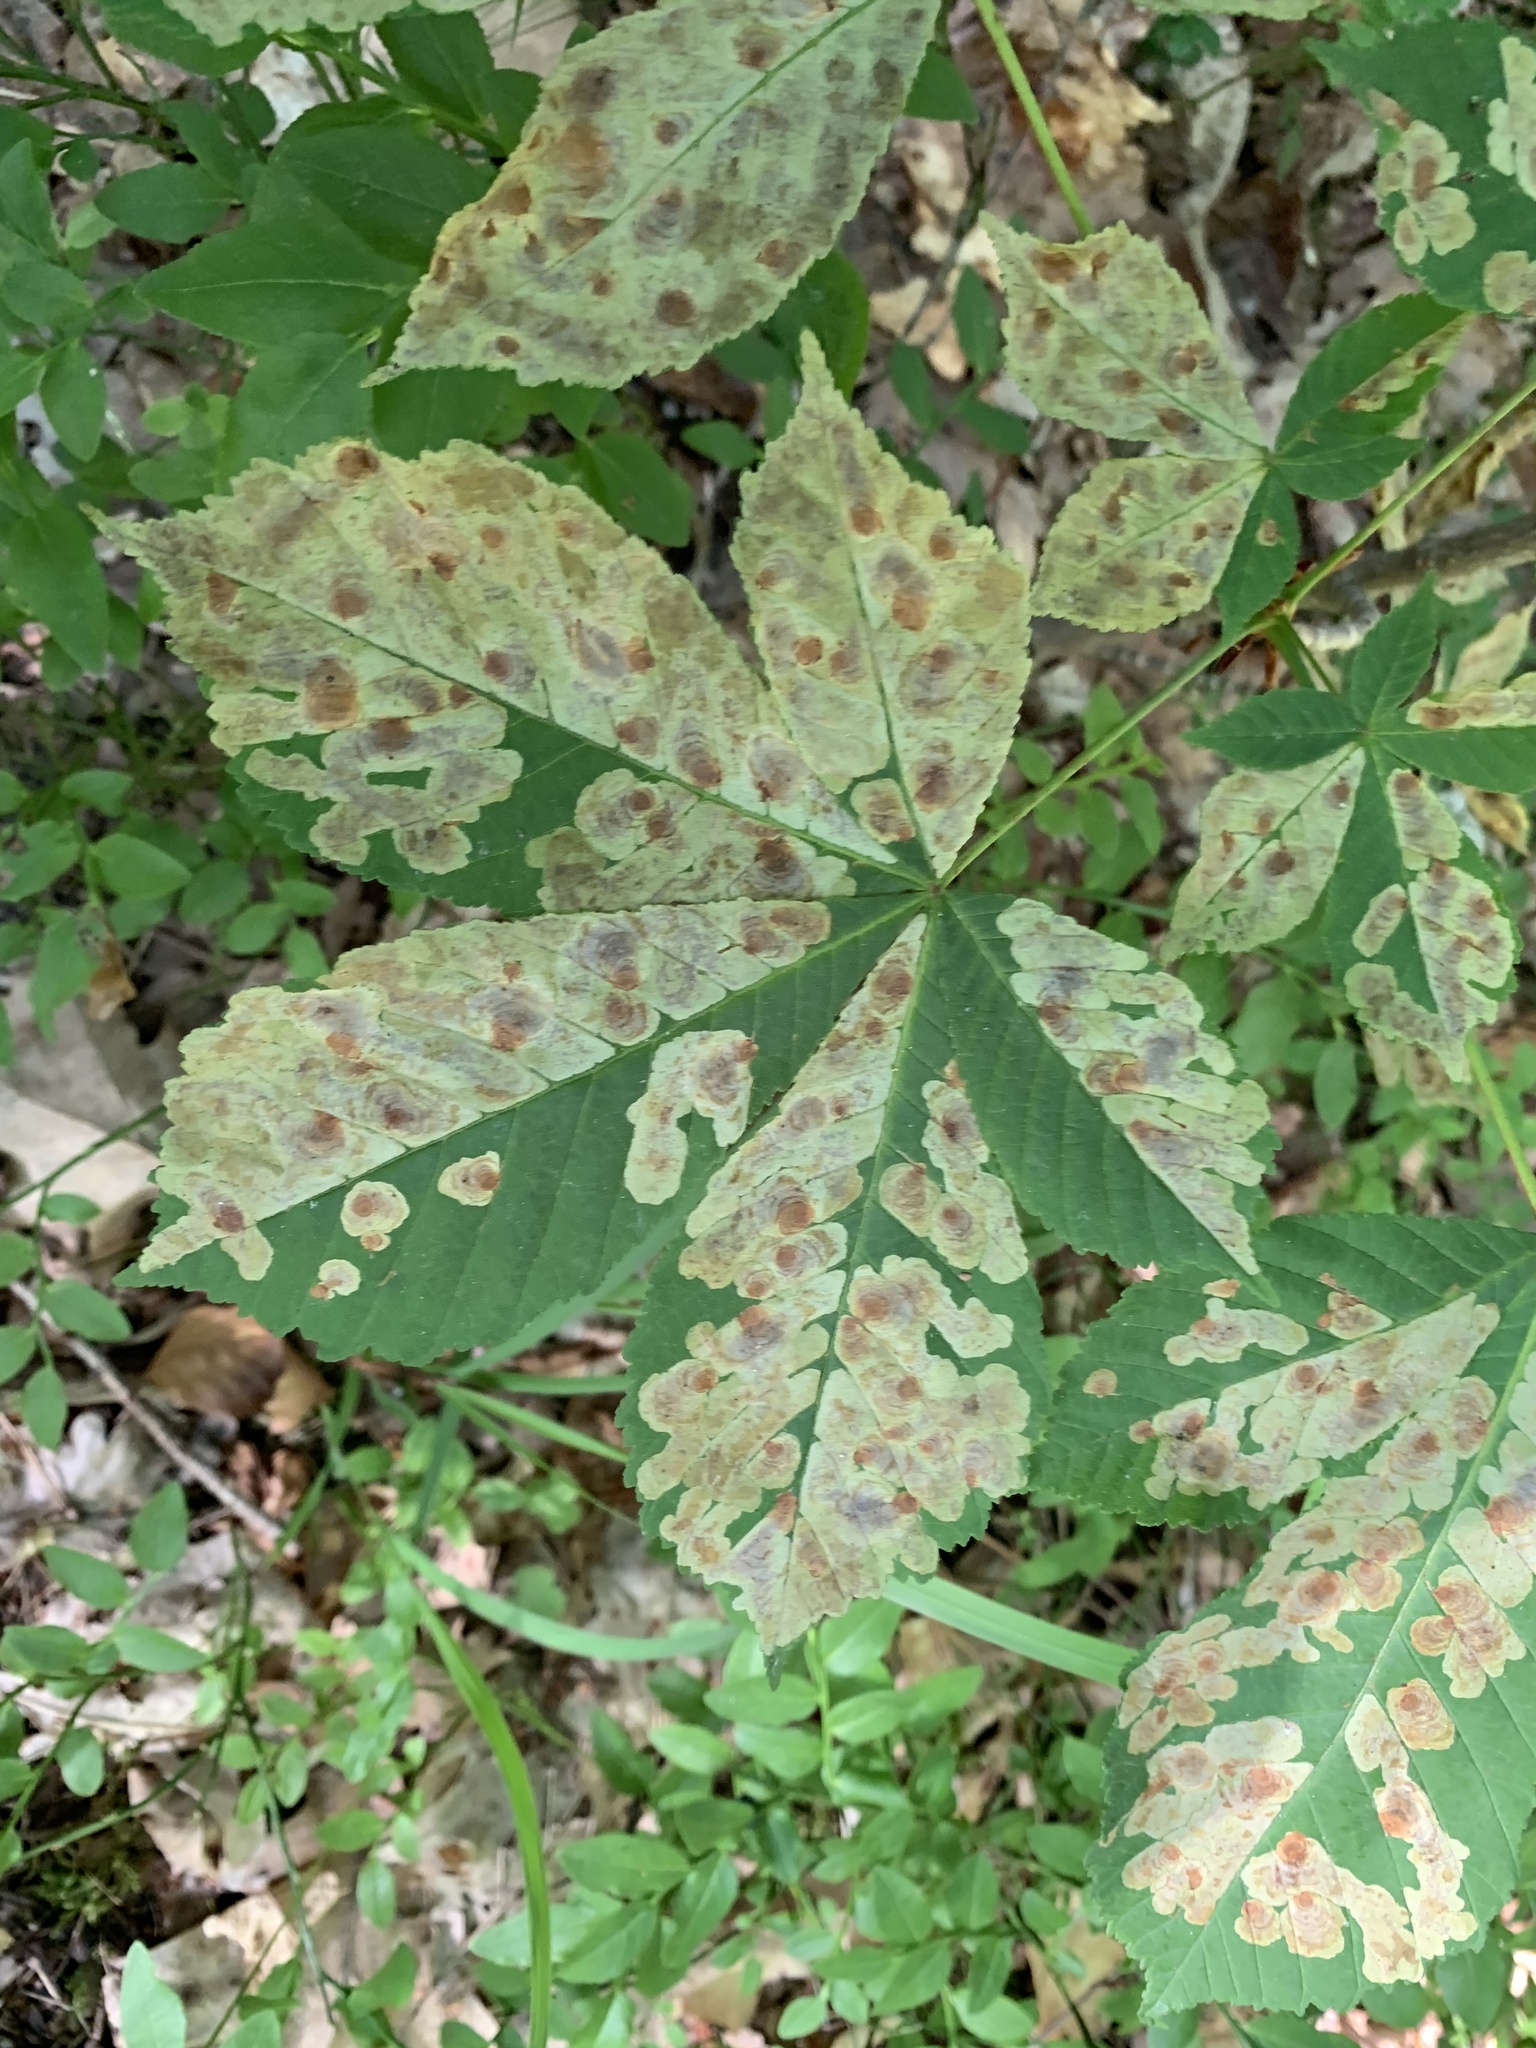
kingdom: Animalia
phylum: Arthropoda
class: Insecta
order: Lepidoptera
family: Gracillariidae
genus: Cameraria
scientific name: Cameraria ohridella
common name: Horse-chestnut leaf-miner
